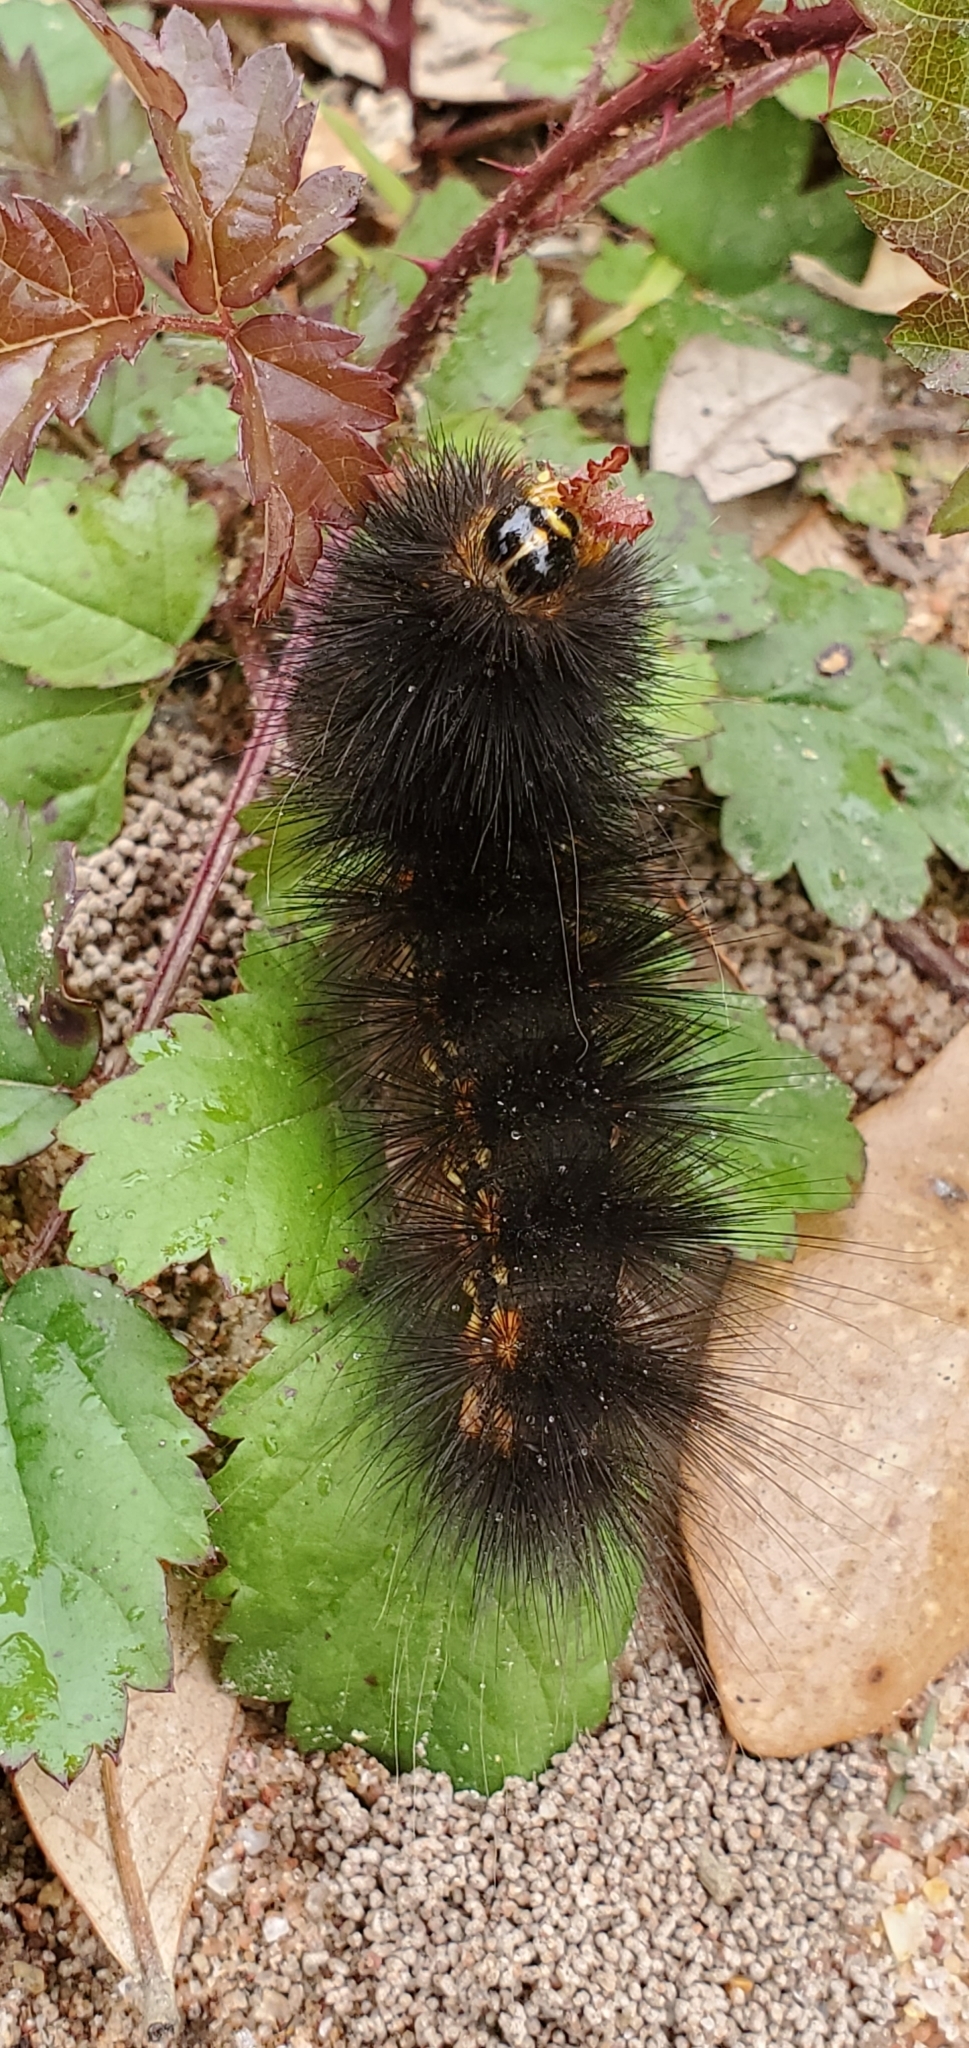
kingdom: Animalia
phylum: Arthropoda
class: Insecta
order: Lepidoptera
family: Erebidae
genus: Estigmene
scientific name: Estigmene acrea
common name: Salt marsh moth
